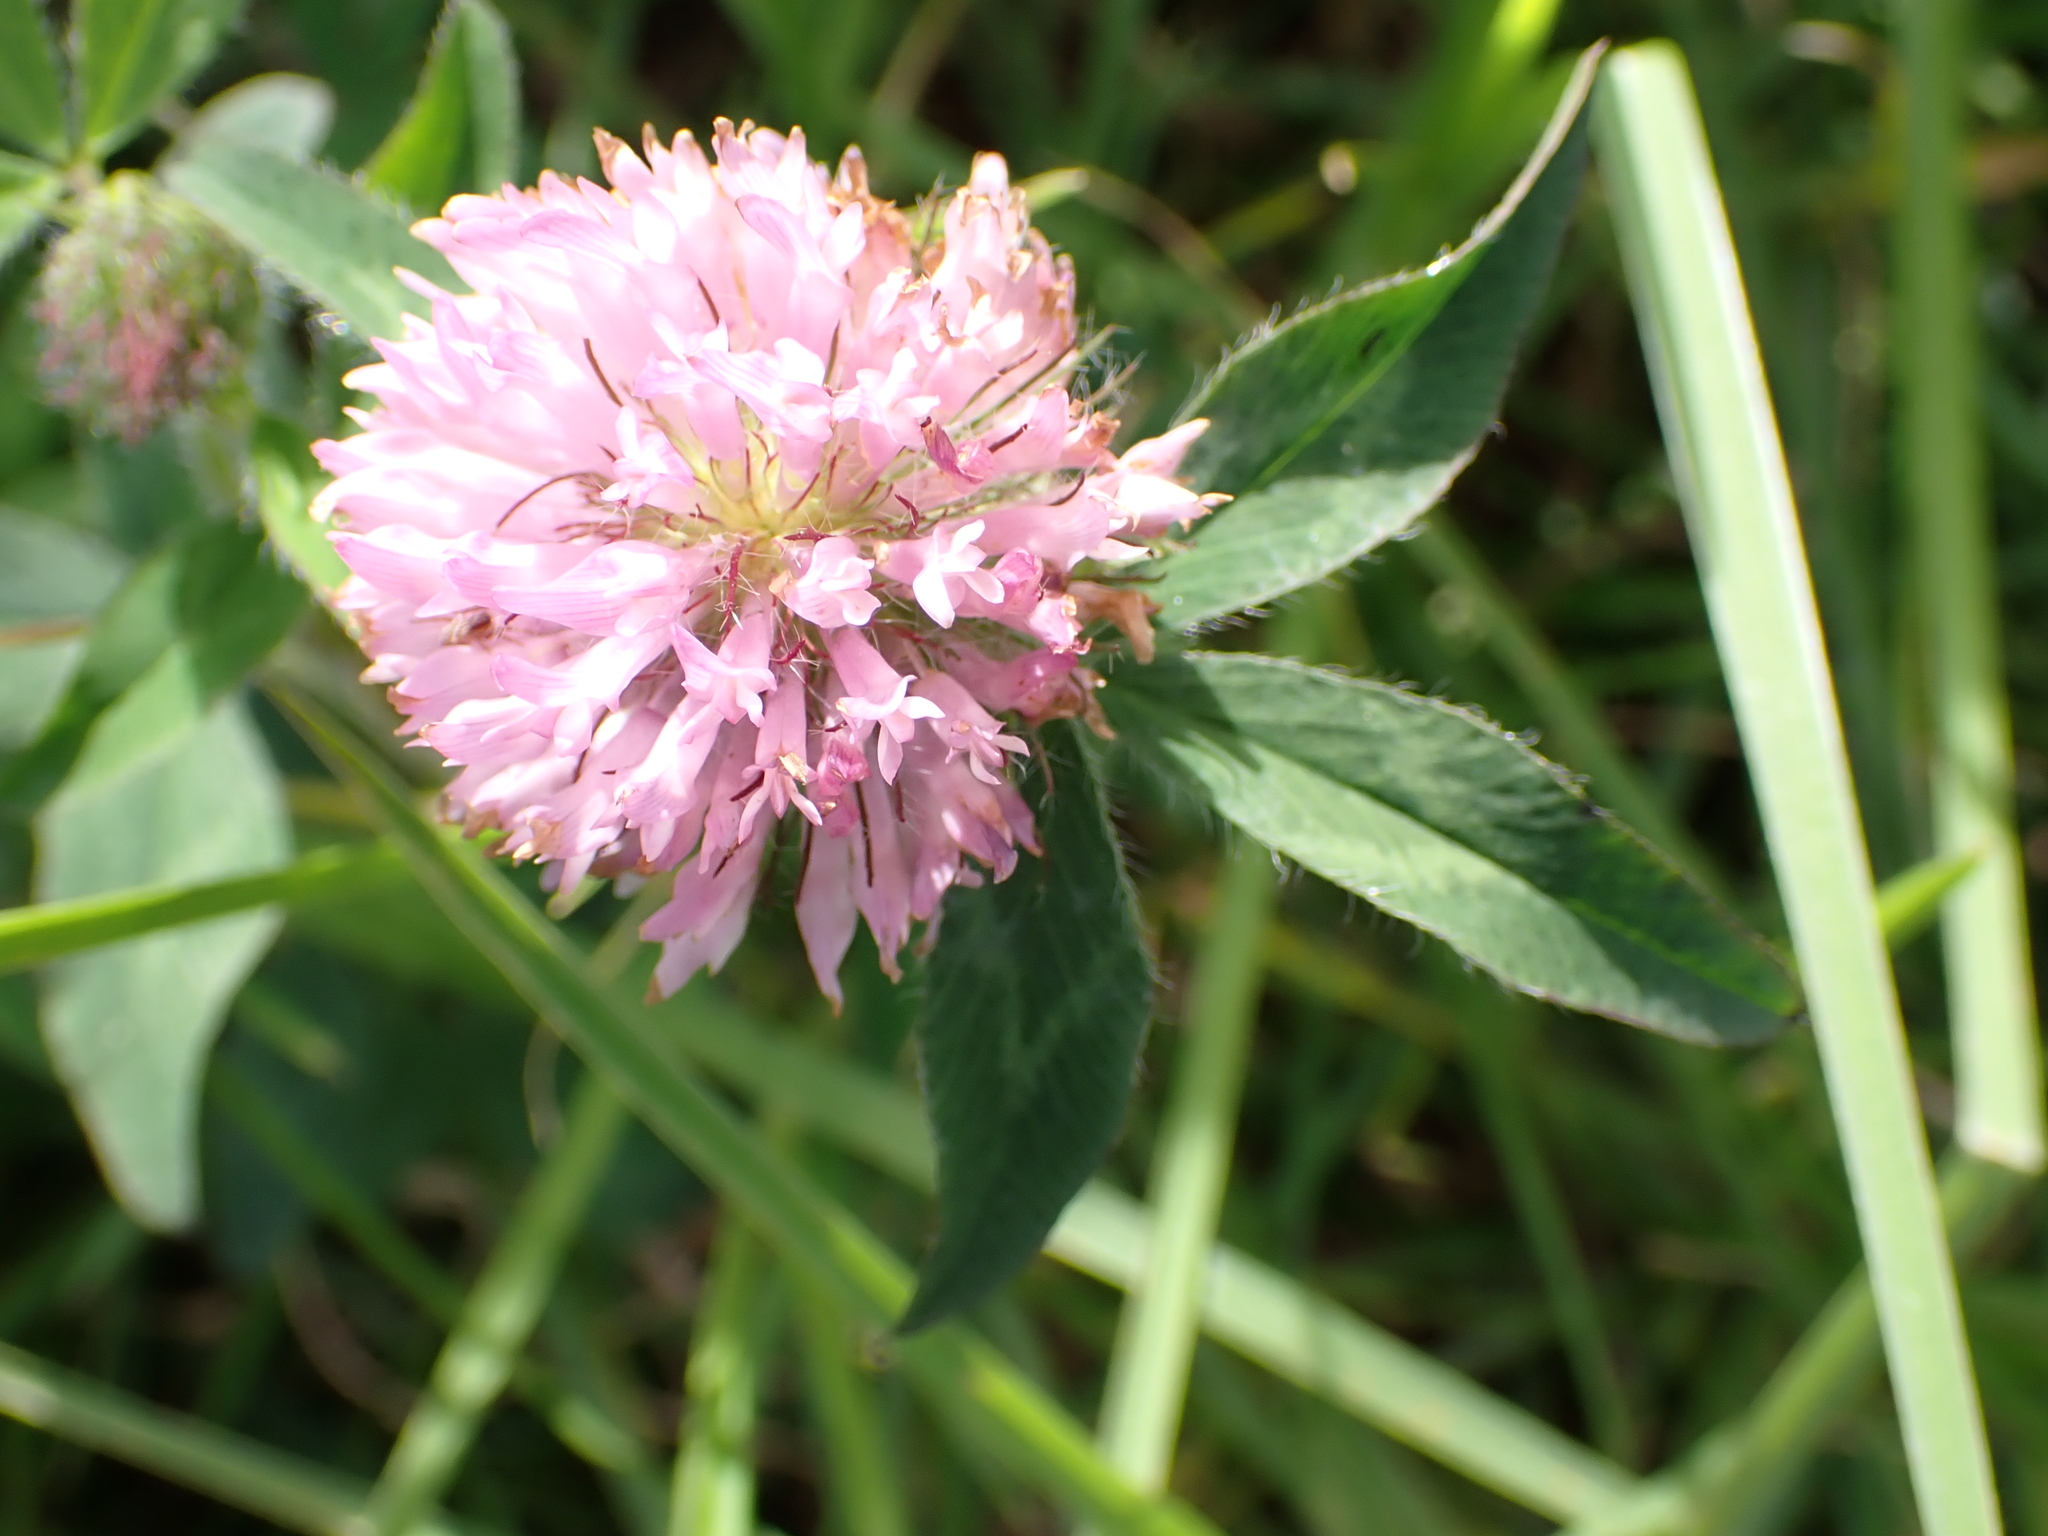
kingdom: Plantae
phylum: Tracheophyta
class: Magnoliopsida
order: Fabales
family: Fabaceae
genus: Trifolium
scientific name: Trifolium pratense
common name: Red clover
